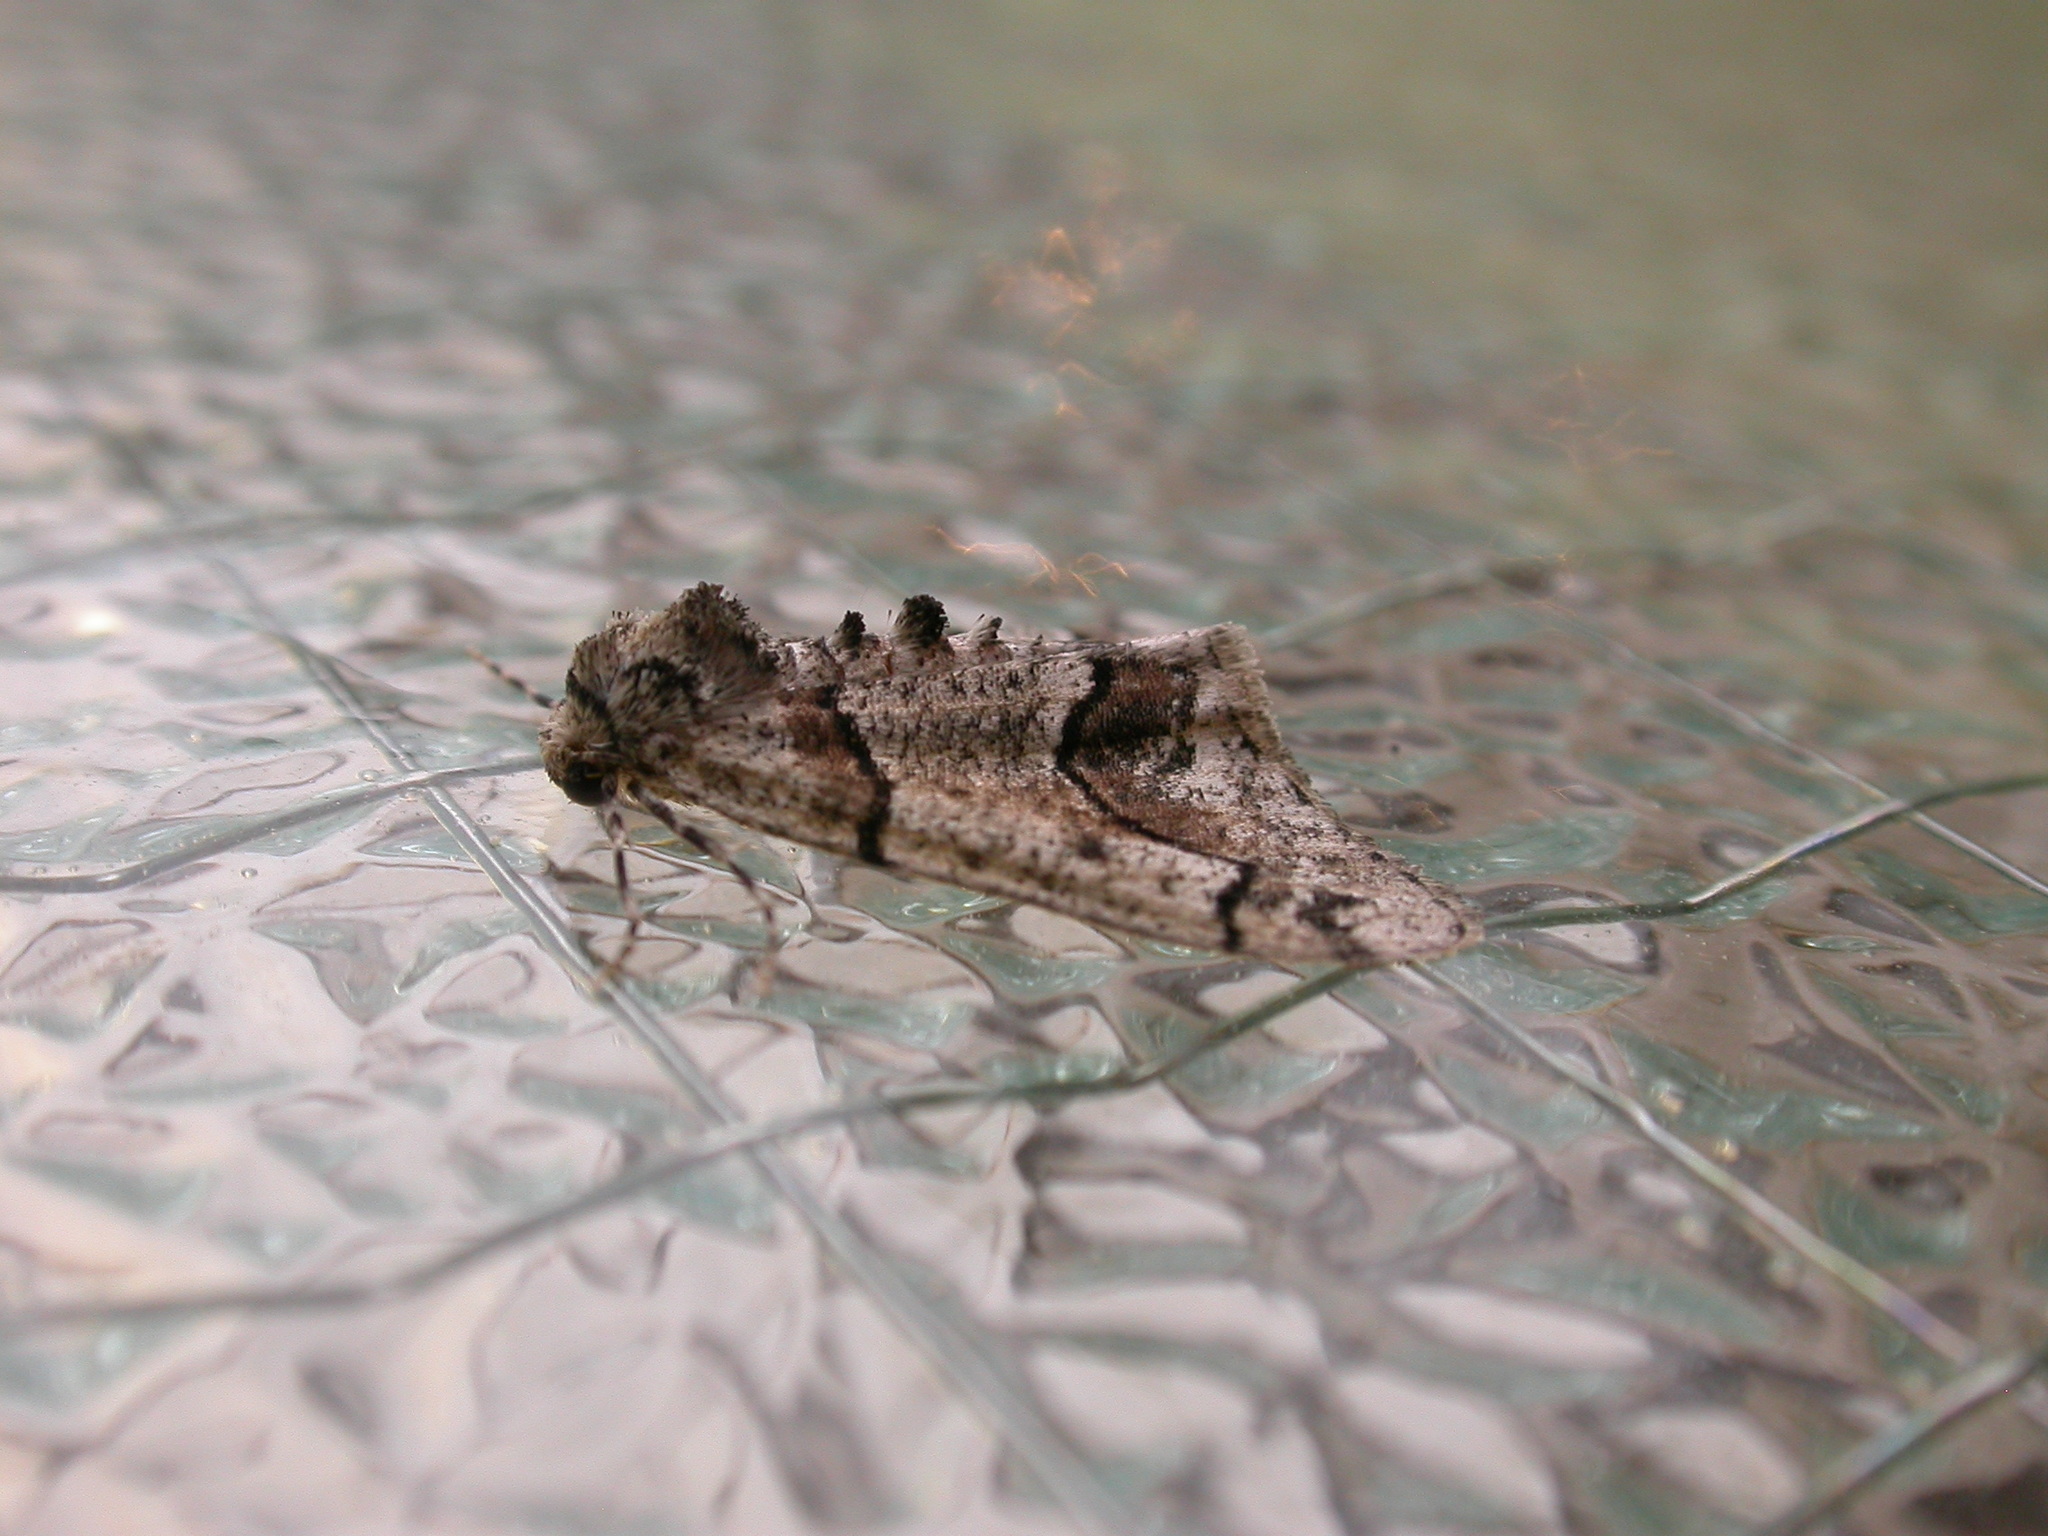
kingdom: Animalia
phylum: Arthropoda
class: Insecta
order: Lepidoptera
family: Geometridae
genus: Gabriola
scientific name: Gabriola dyari
